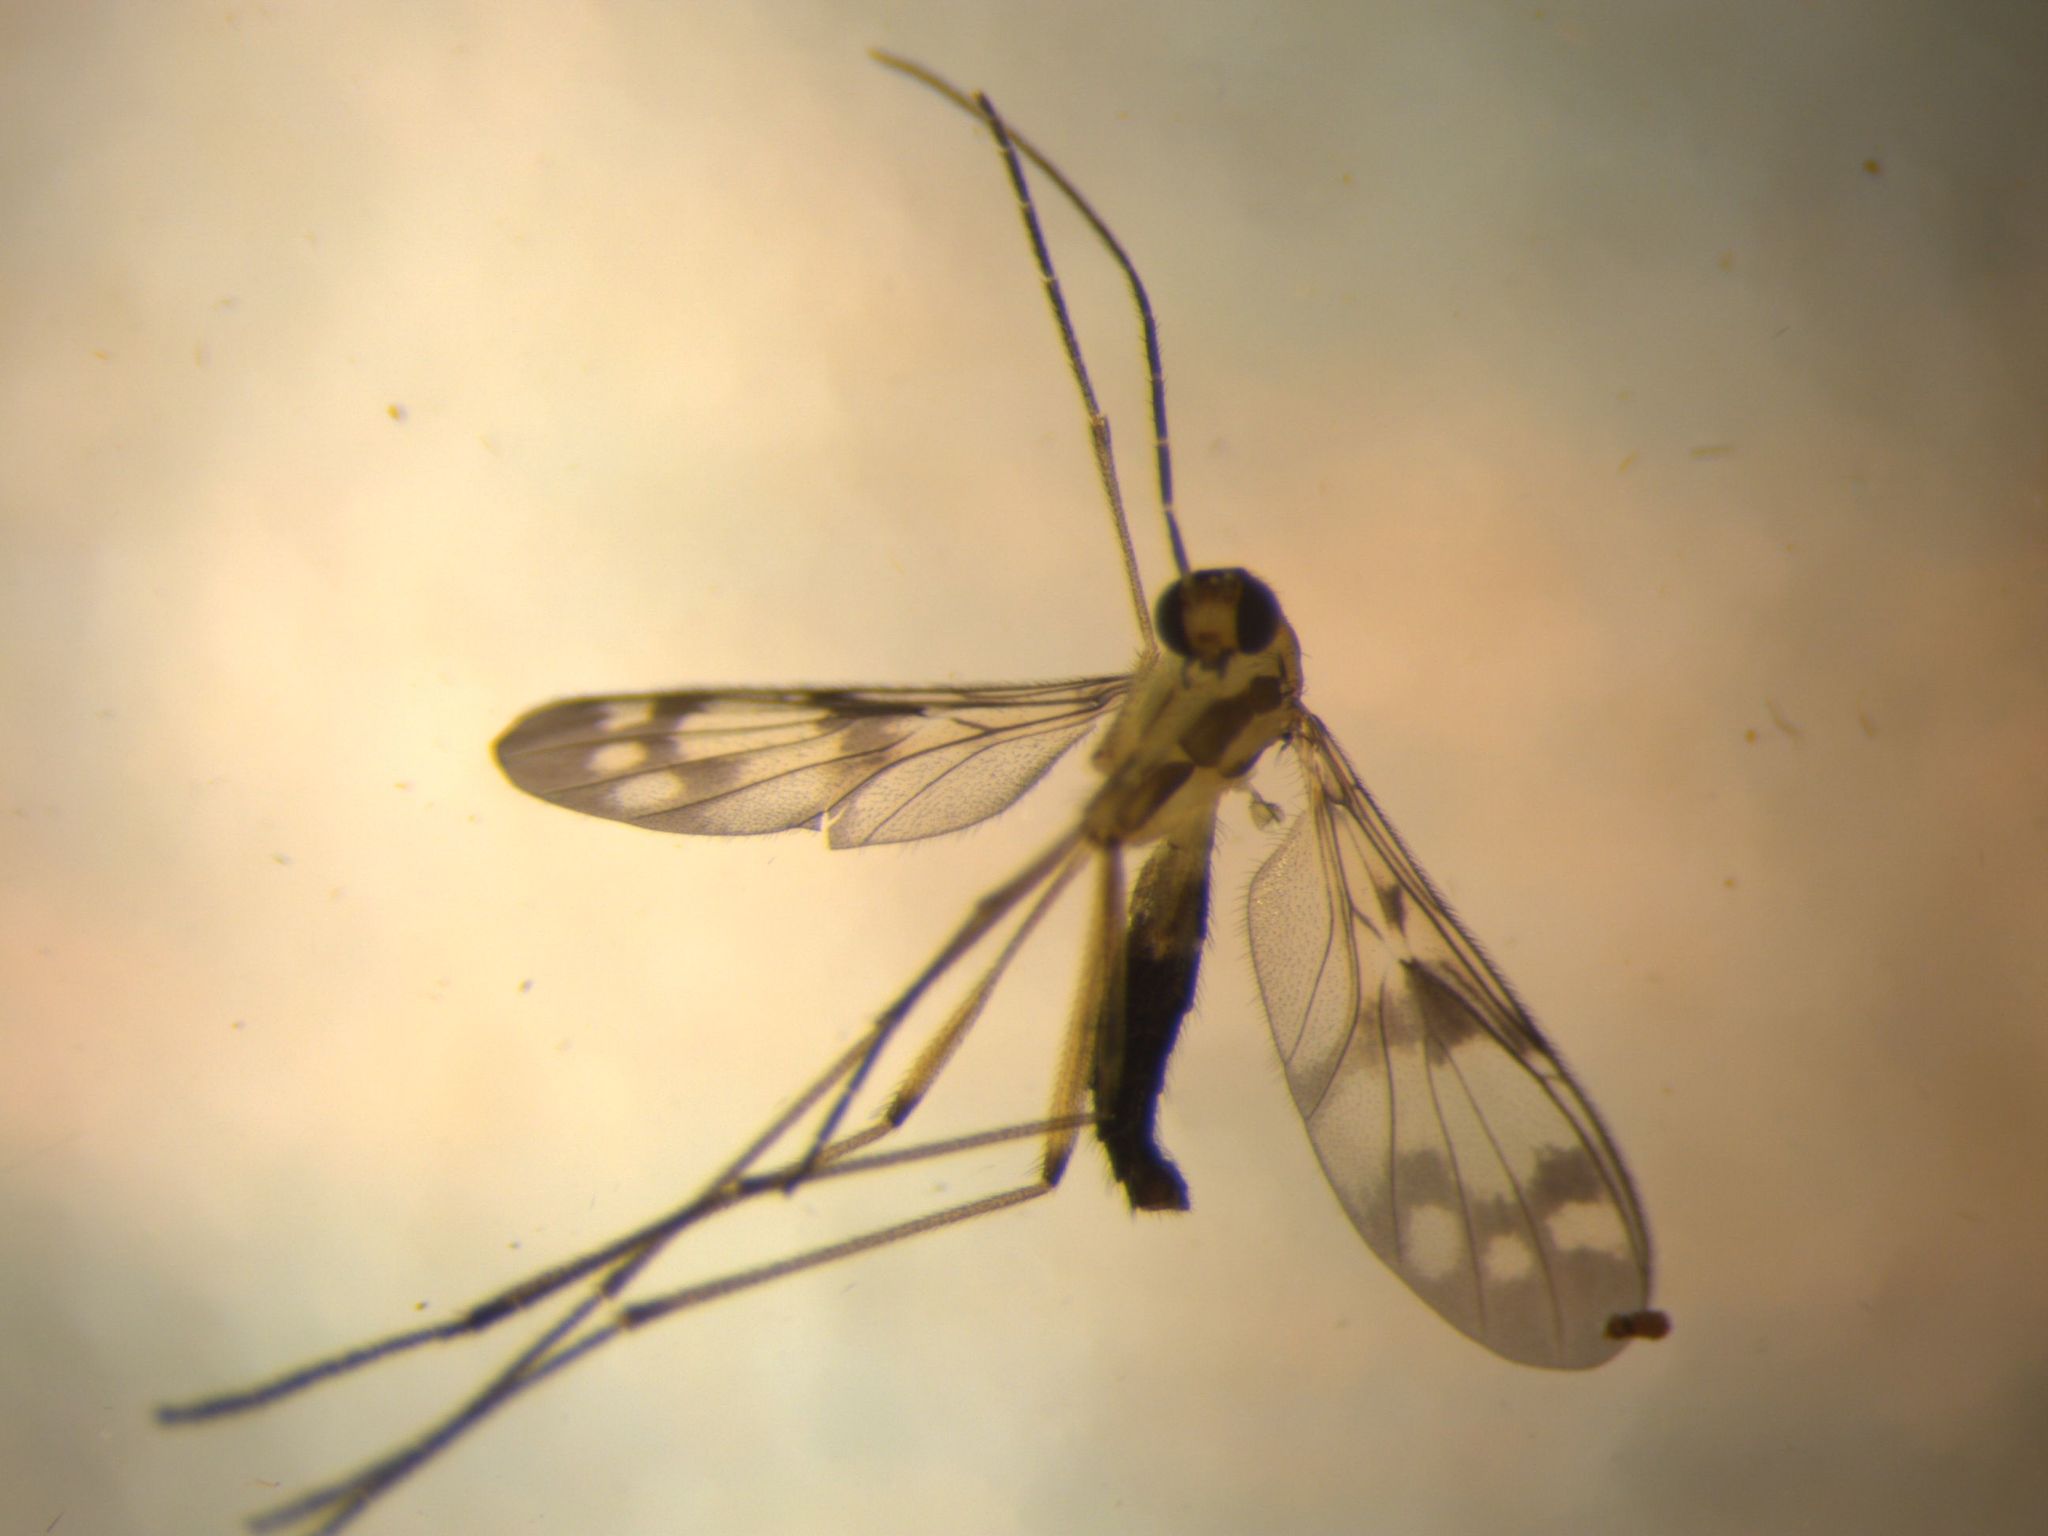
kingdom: Animalia
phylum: Arthropoda
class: Insecta
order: Diptera
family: Keroplatidae
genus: Chiasmoneura
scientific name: Chiasmoneura fenestrata
